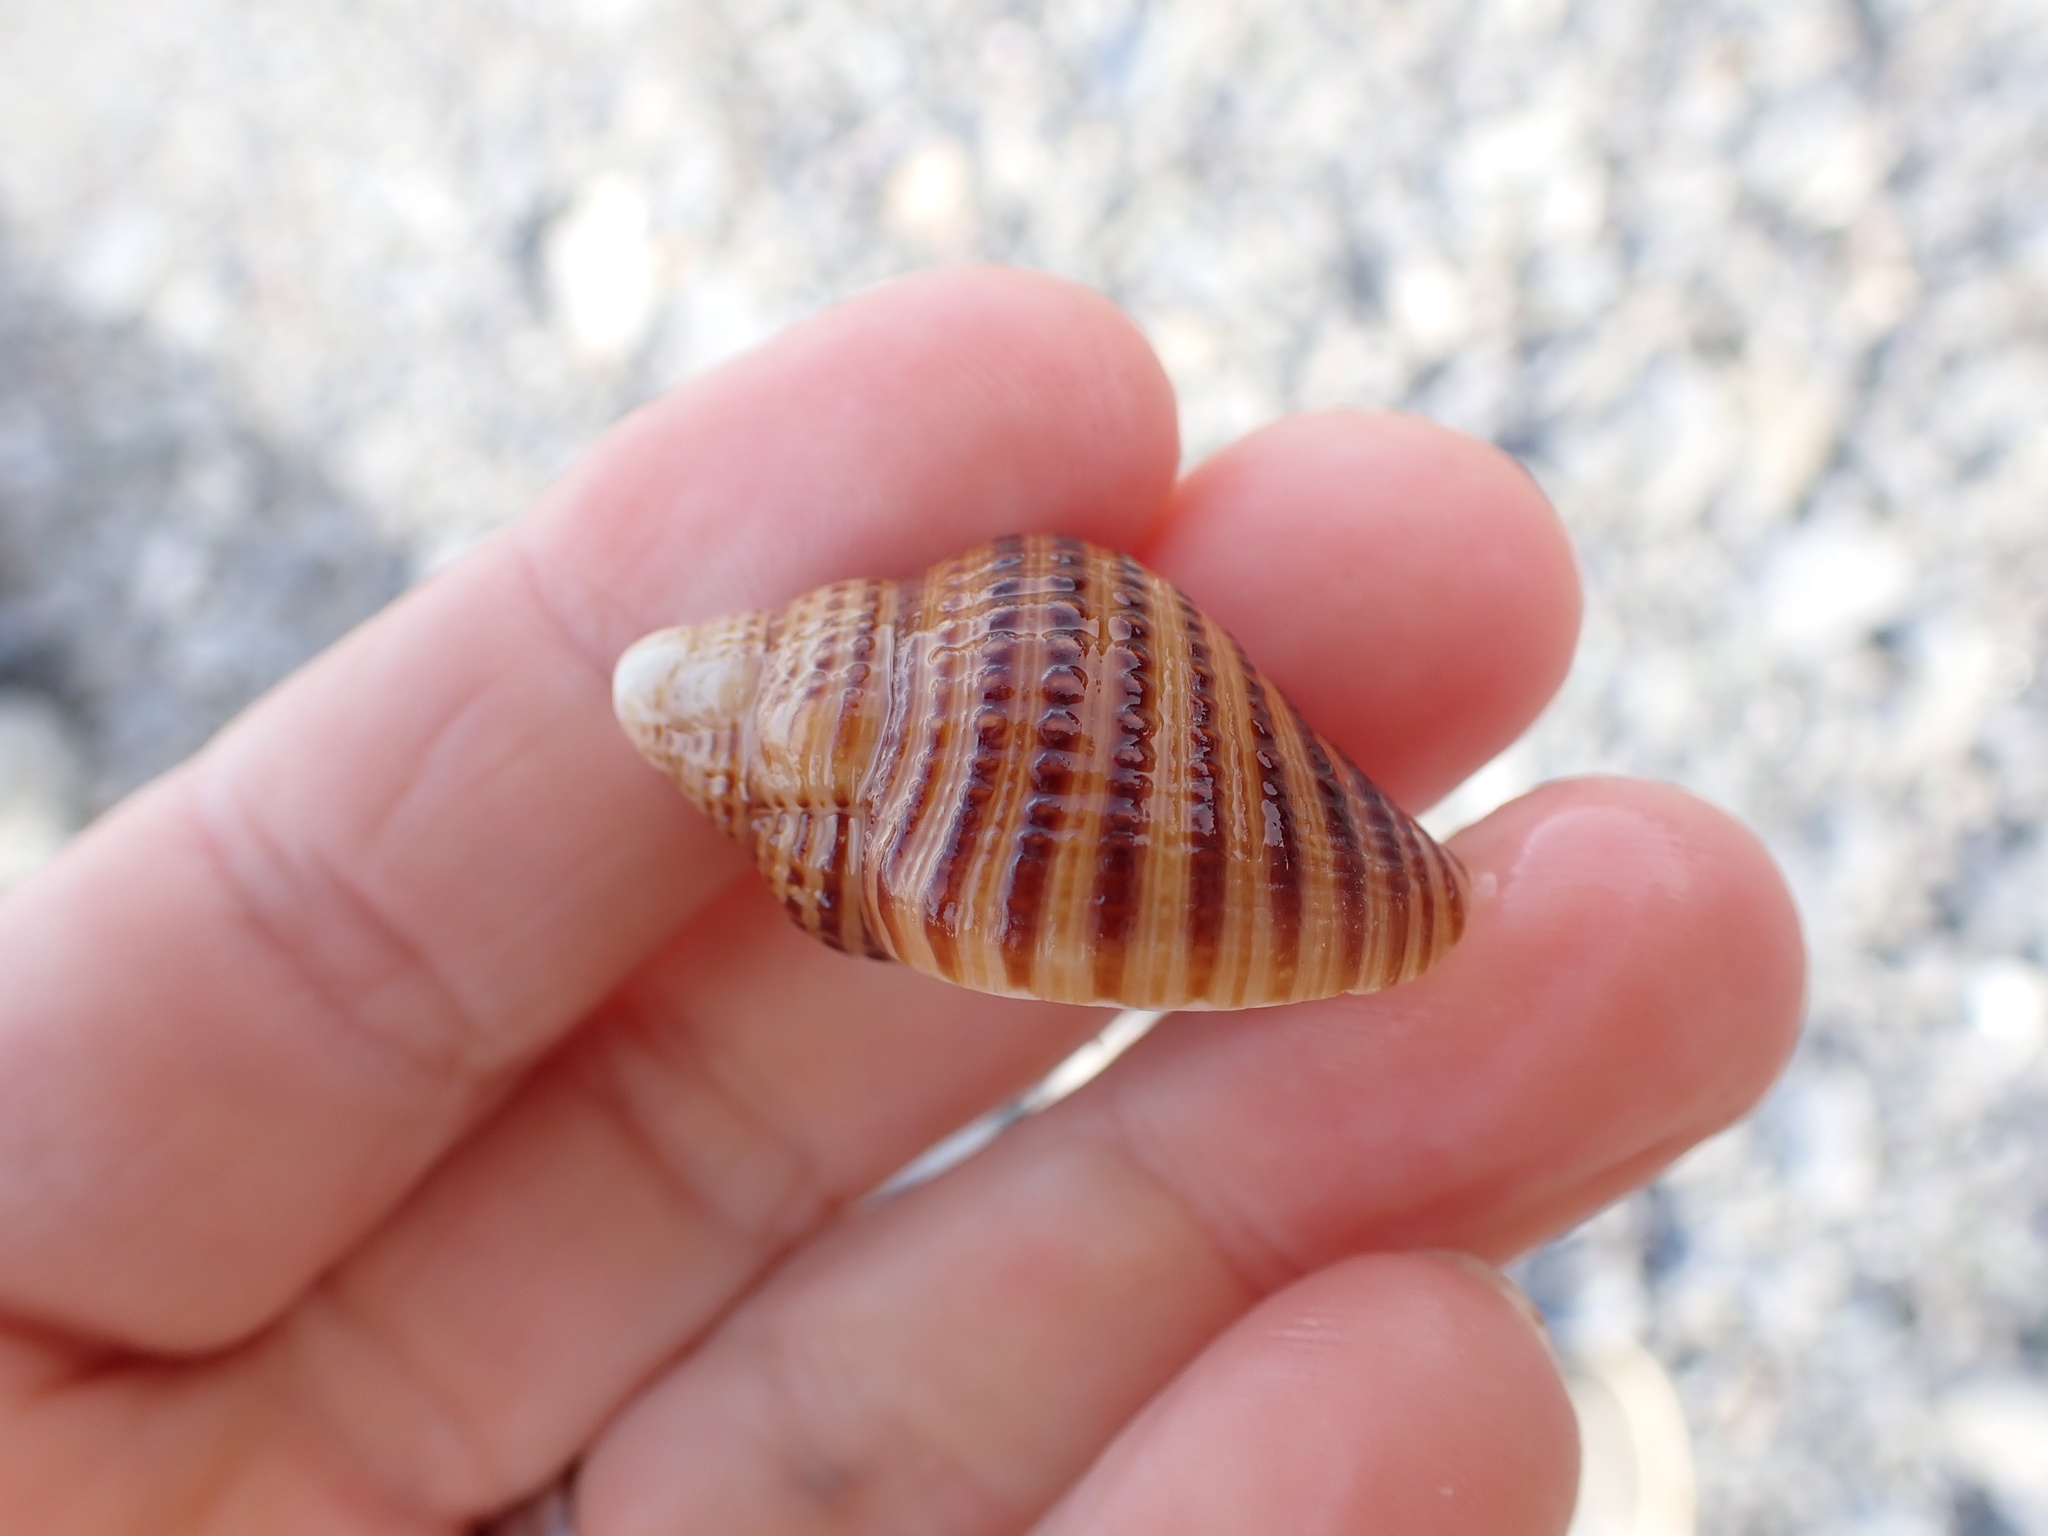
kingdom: Animalia
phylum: Mollusca
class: Gastropoda
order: Littorinimorpha
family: Cymatiidae
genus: Argobuccinum
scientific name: Argobuccinum pustulosum
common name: Pustular triton
